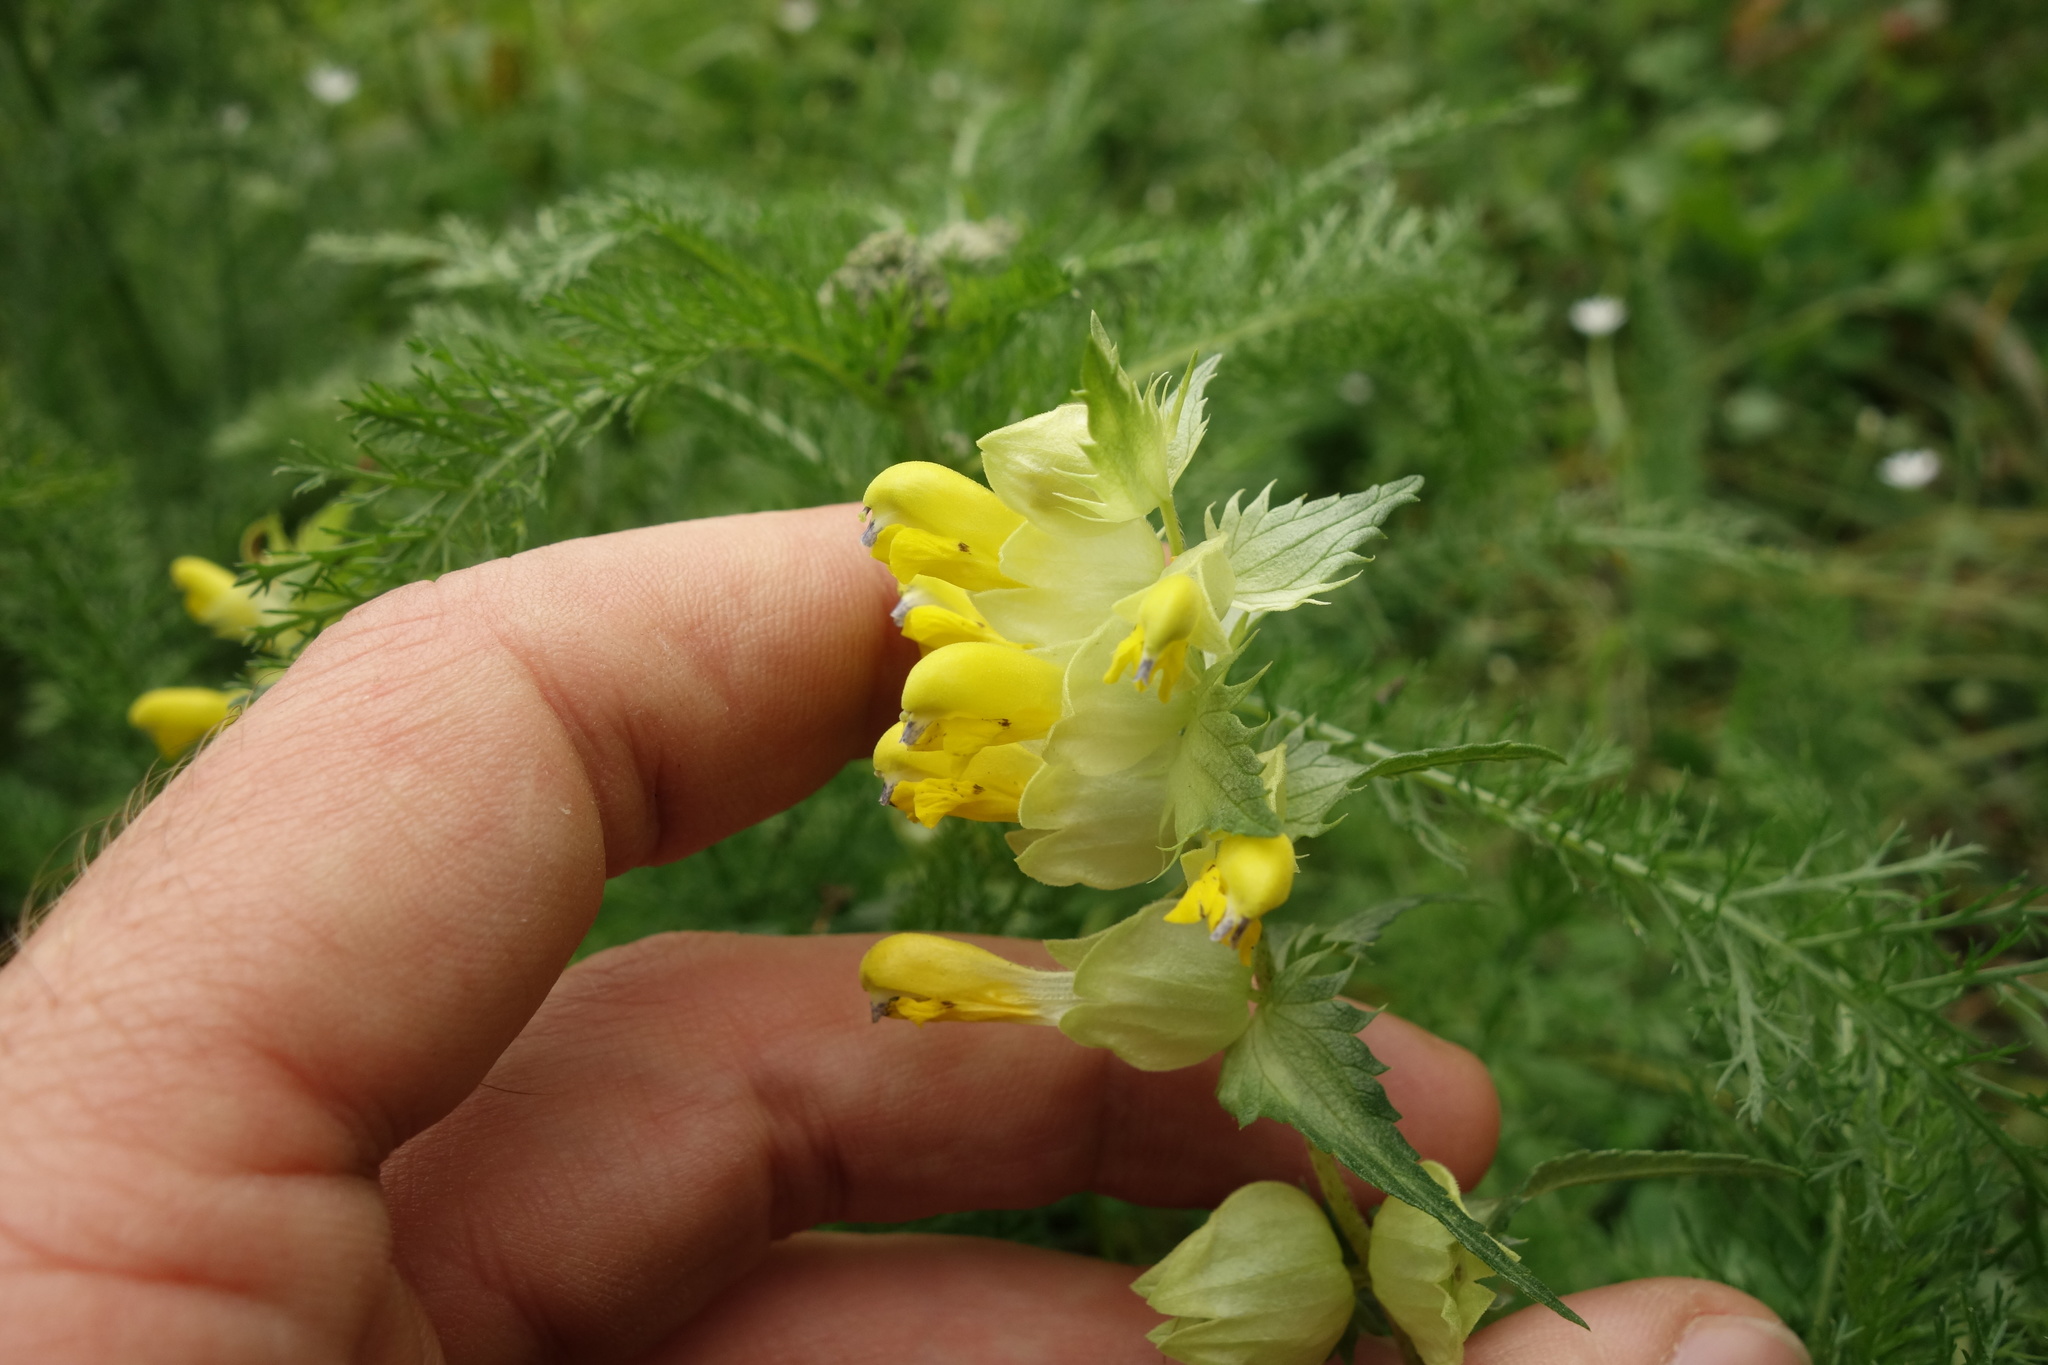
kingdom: Plantae
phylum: Tracheophyta
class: Magnoliopsida
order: Lamiales
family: Orobanchaceae
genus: Rhinanthus
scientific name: Rhinanthus serotinus
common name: Late-flowering yellow rattle
